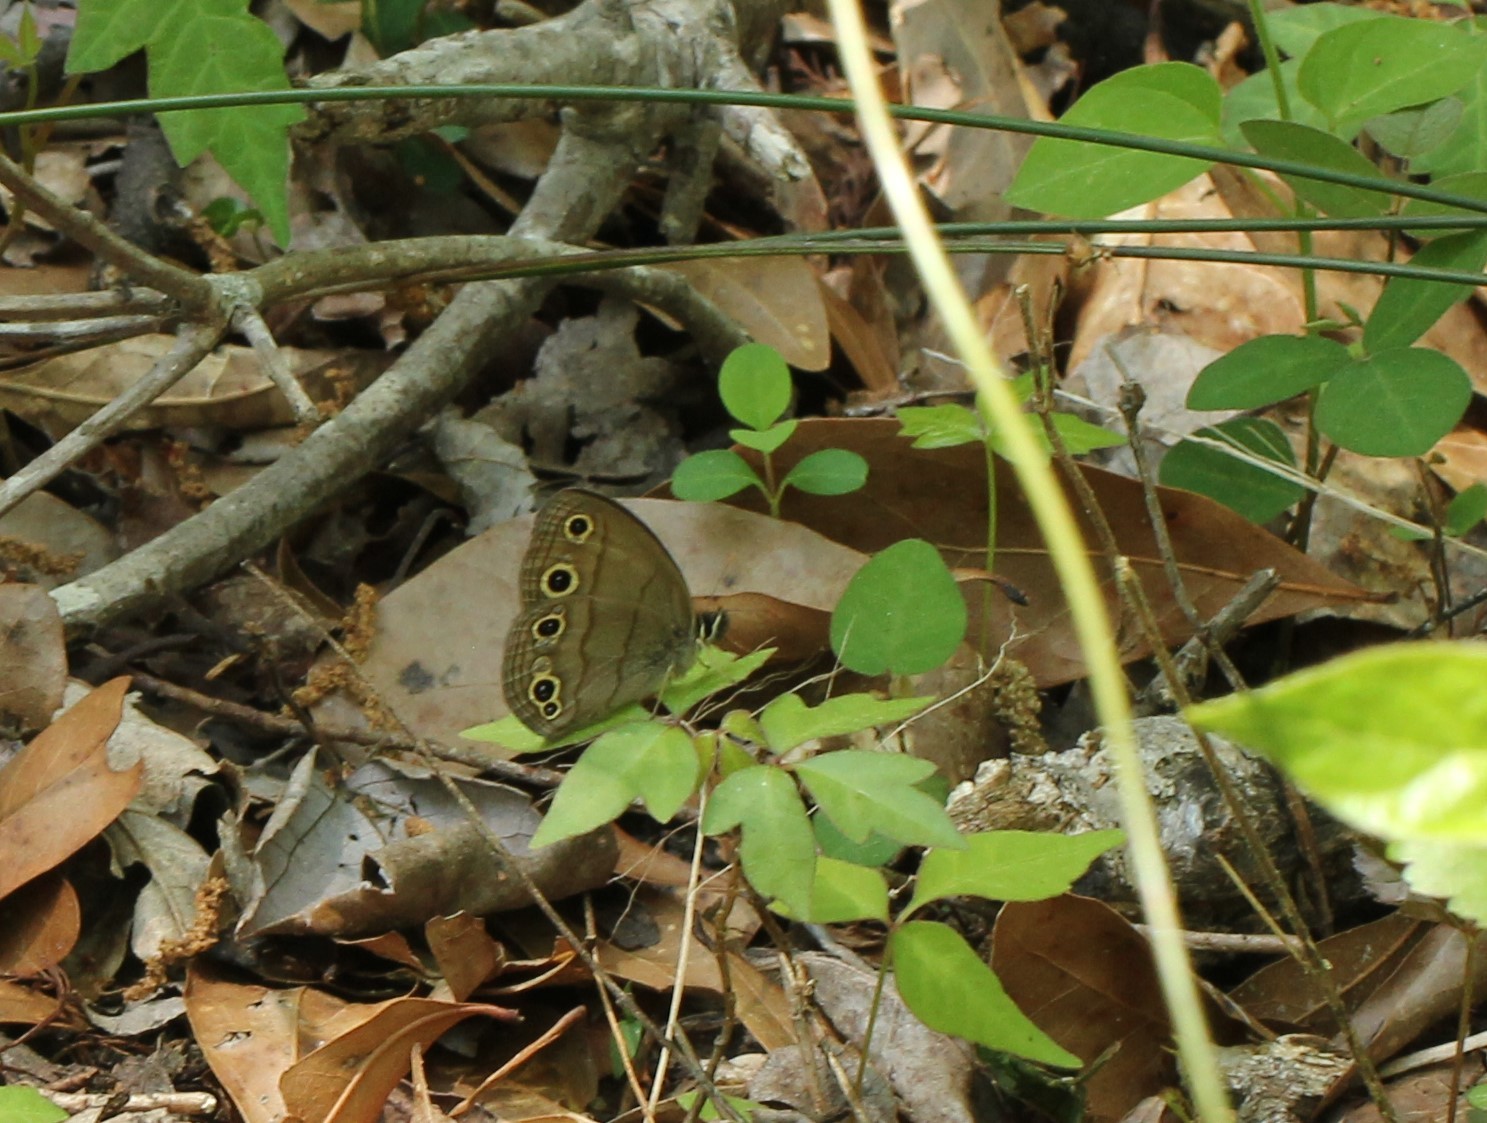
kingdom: Animalia
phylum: Arthropoda
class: Insecta
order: Lepidoptera
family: Nymphalidae
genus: Euptychia
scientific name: Euptychia cymela
